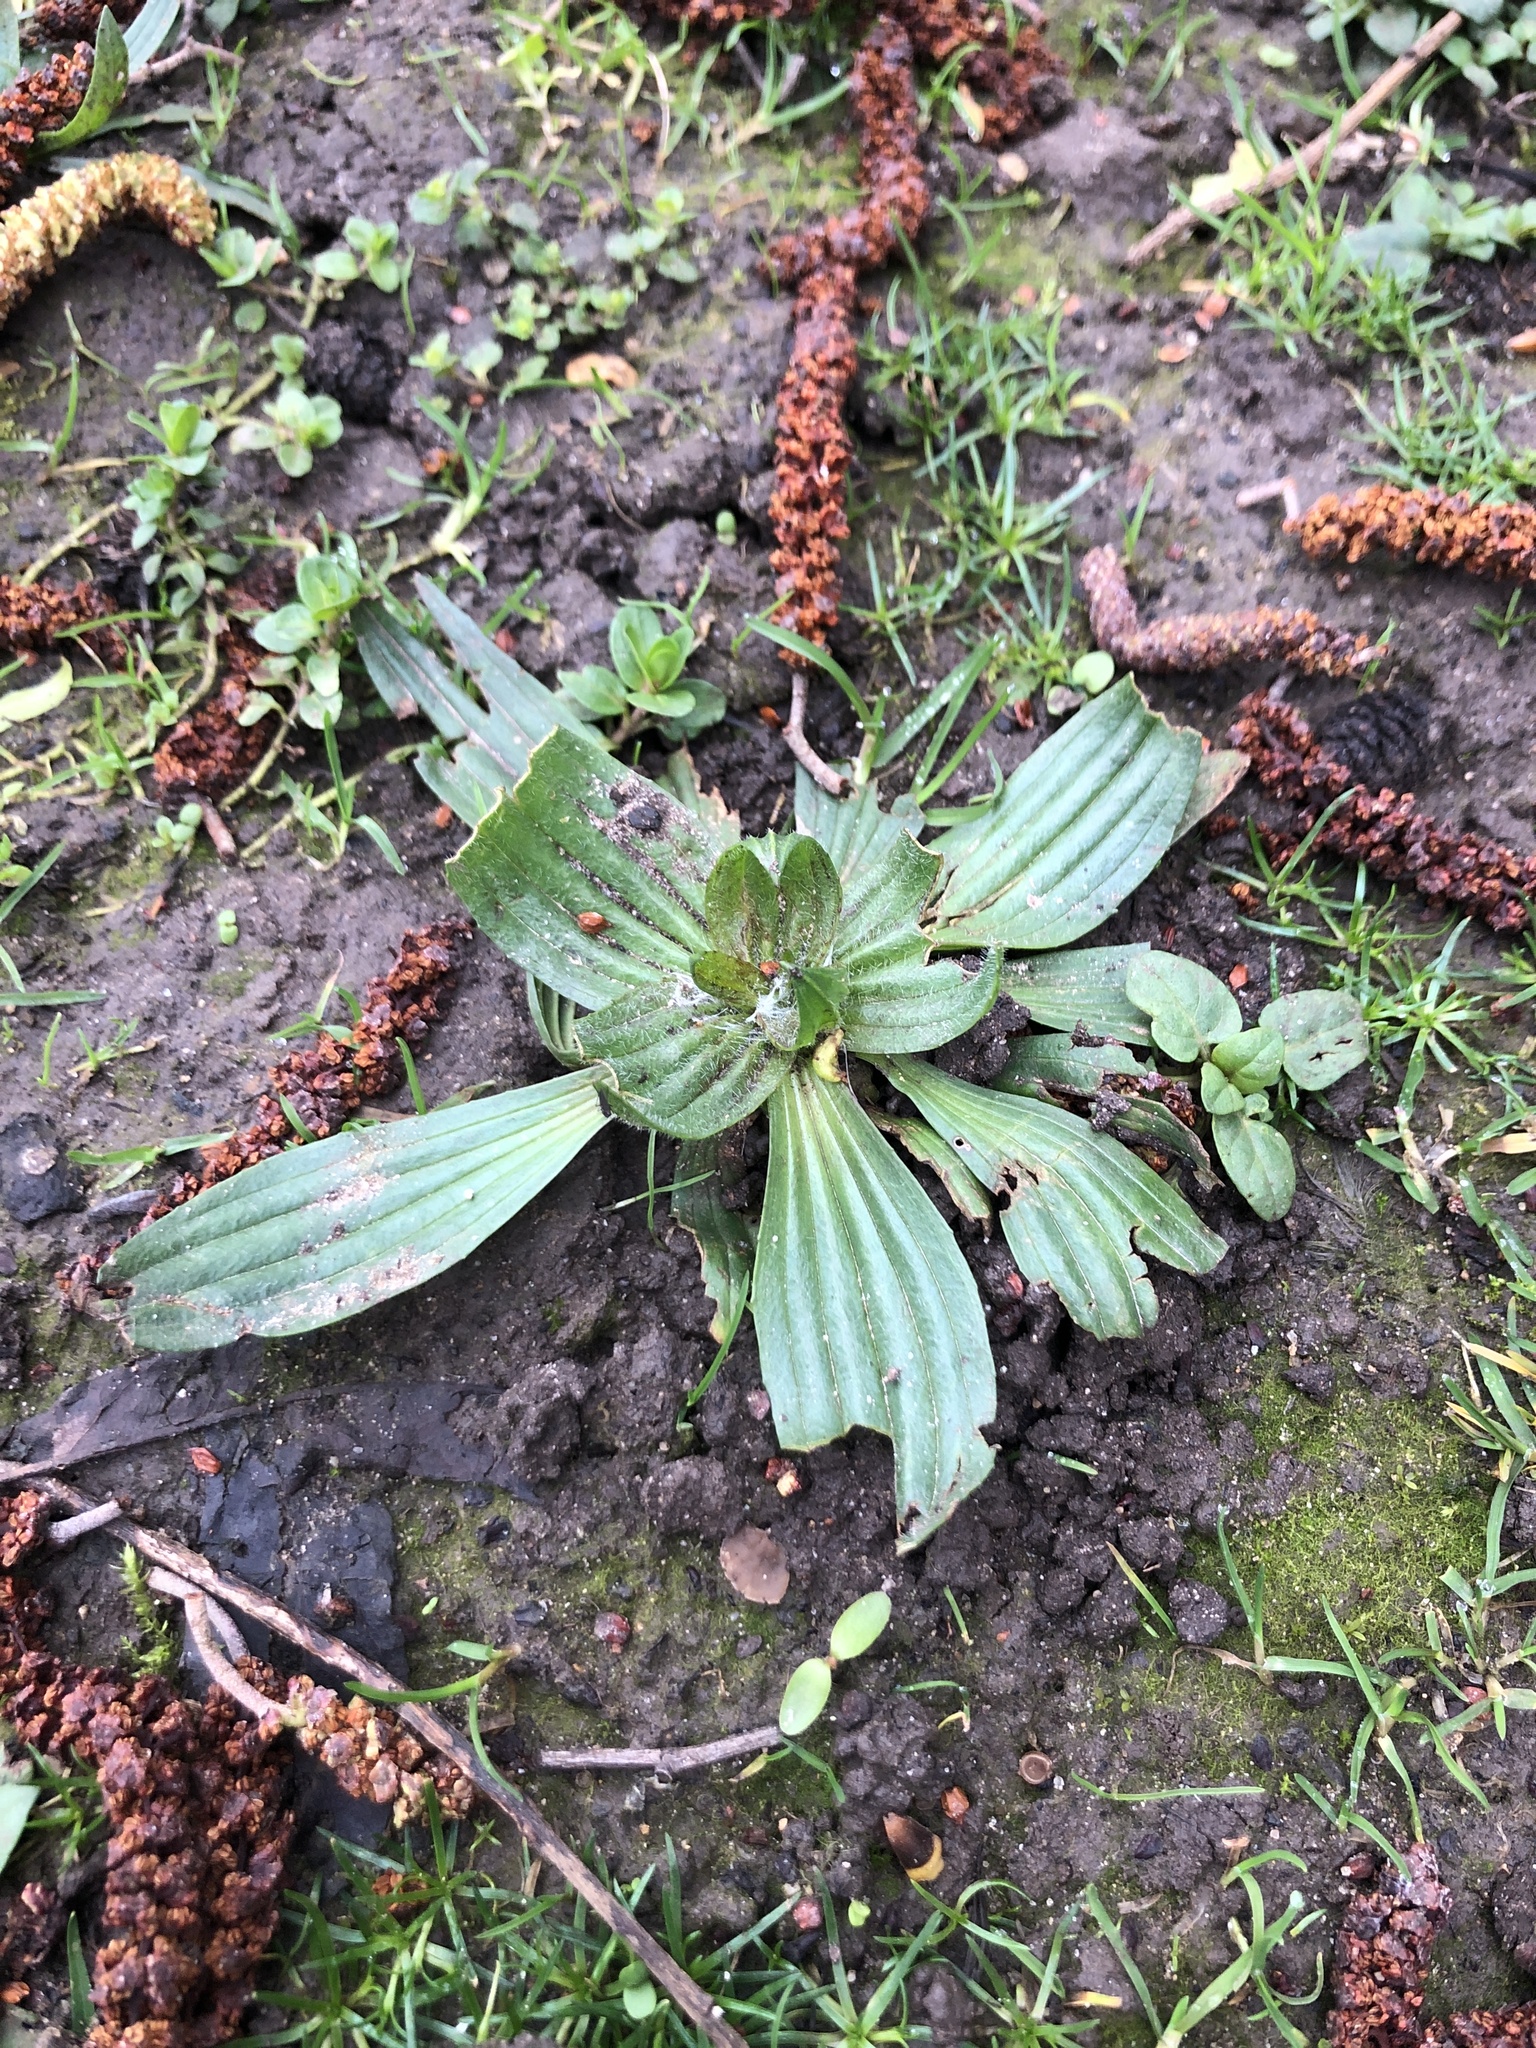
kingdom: Plantae
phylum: Tracheophyta
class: Magnoliopsida
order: Lamiales
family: Plantaginaceae
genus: Plantago
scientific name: Plantago lanceolata
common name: Ribwort plantain
